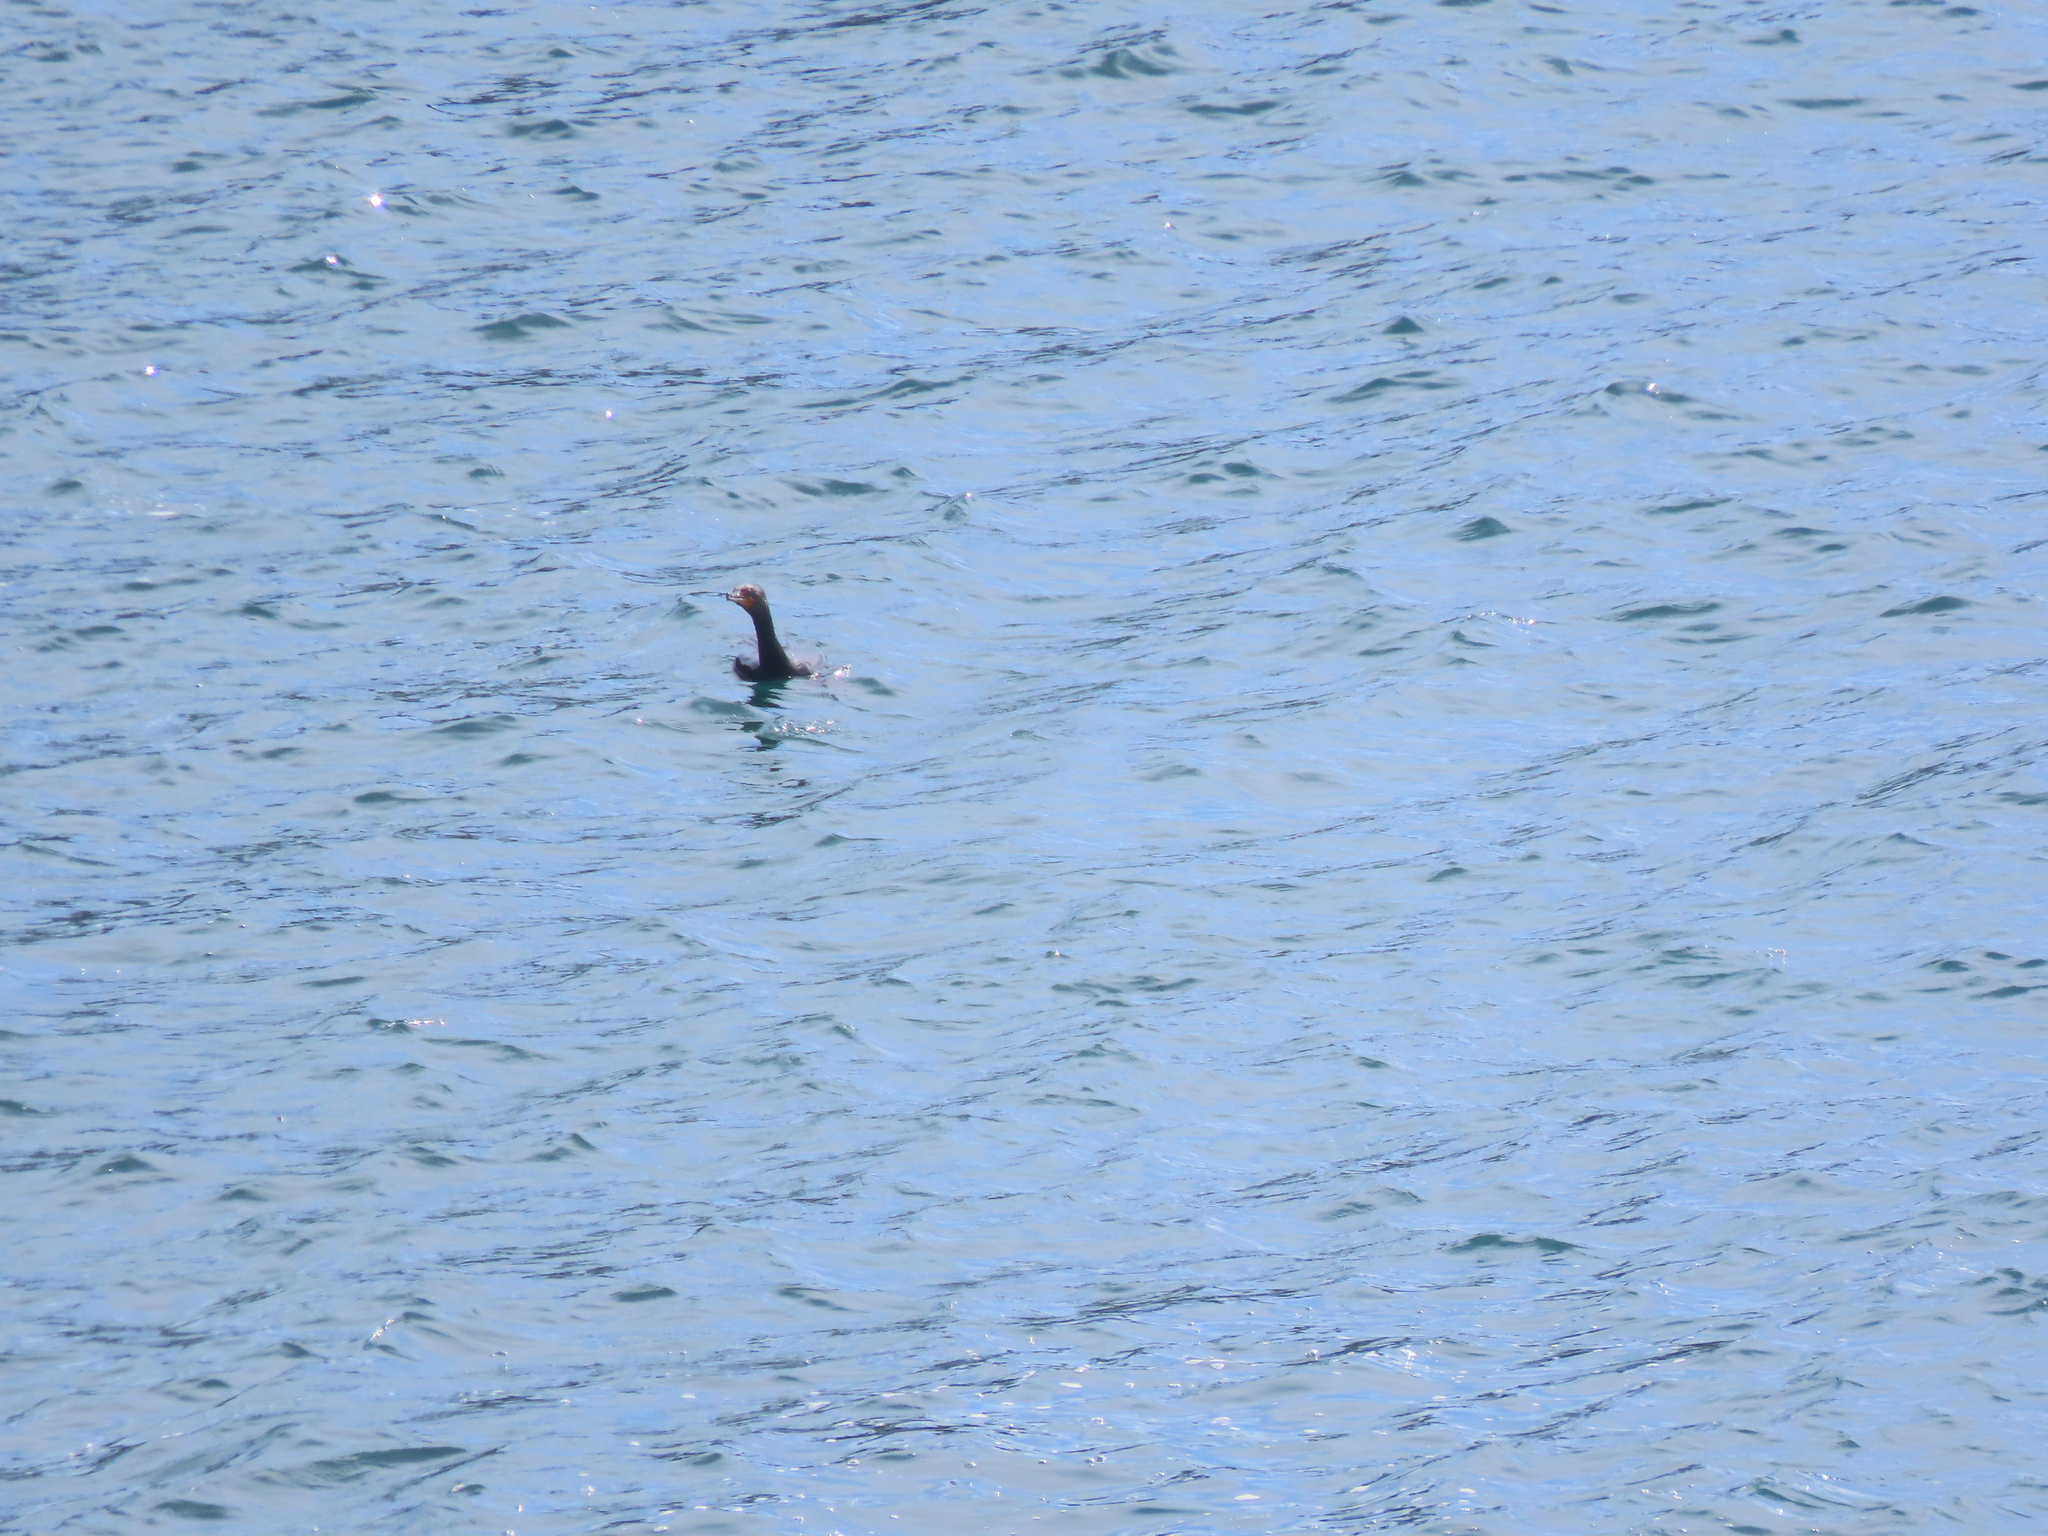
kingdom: Animalia
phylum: Chordata
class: Aves
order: Suliformes
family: Phalacrocoracidae
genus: Phalacrocorax
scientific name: Phalacrocorax auritus
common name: Double-crested cormorant
